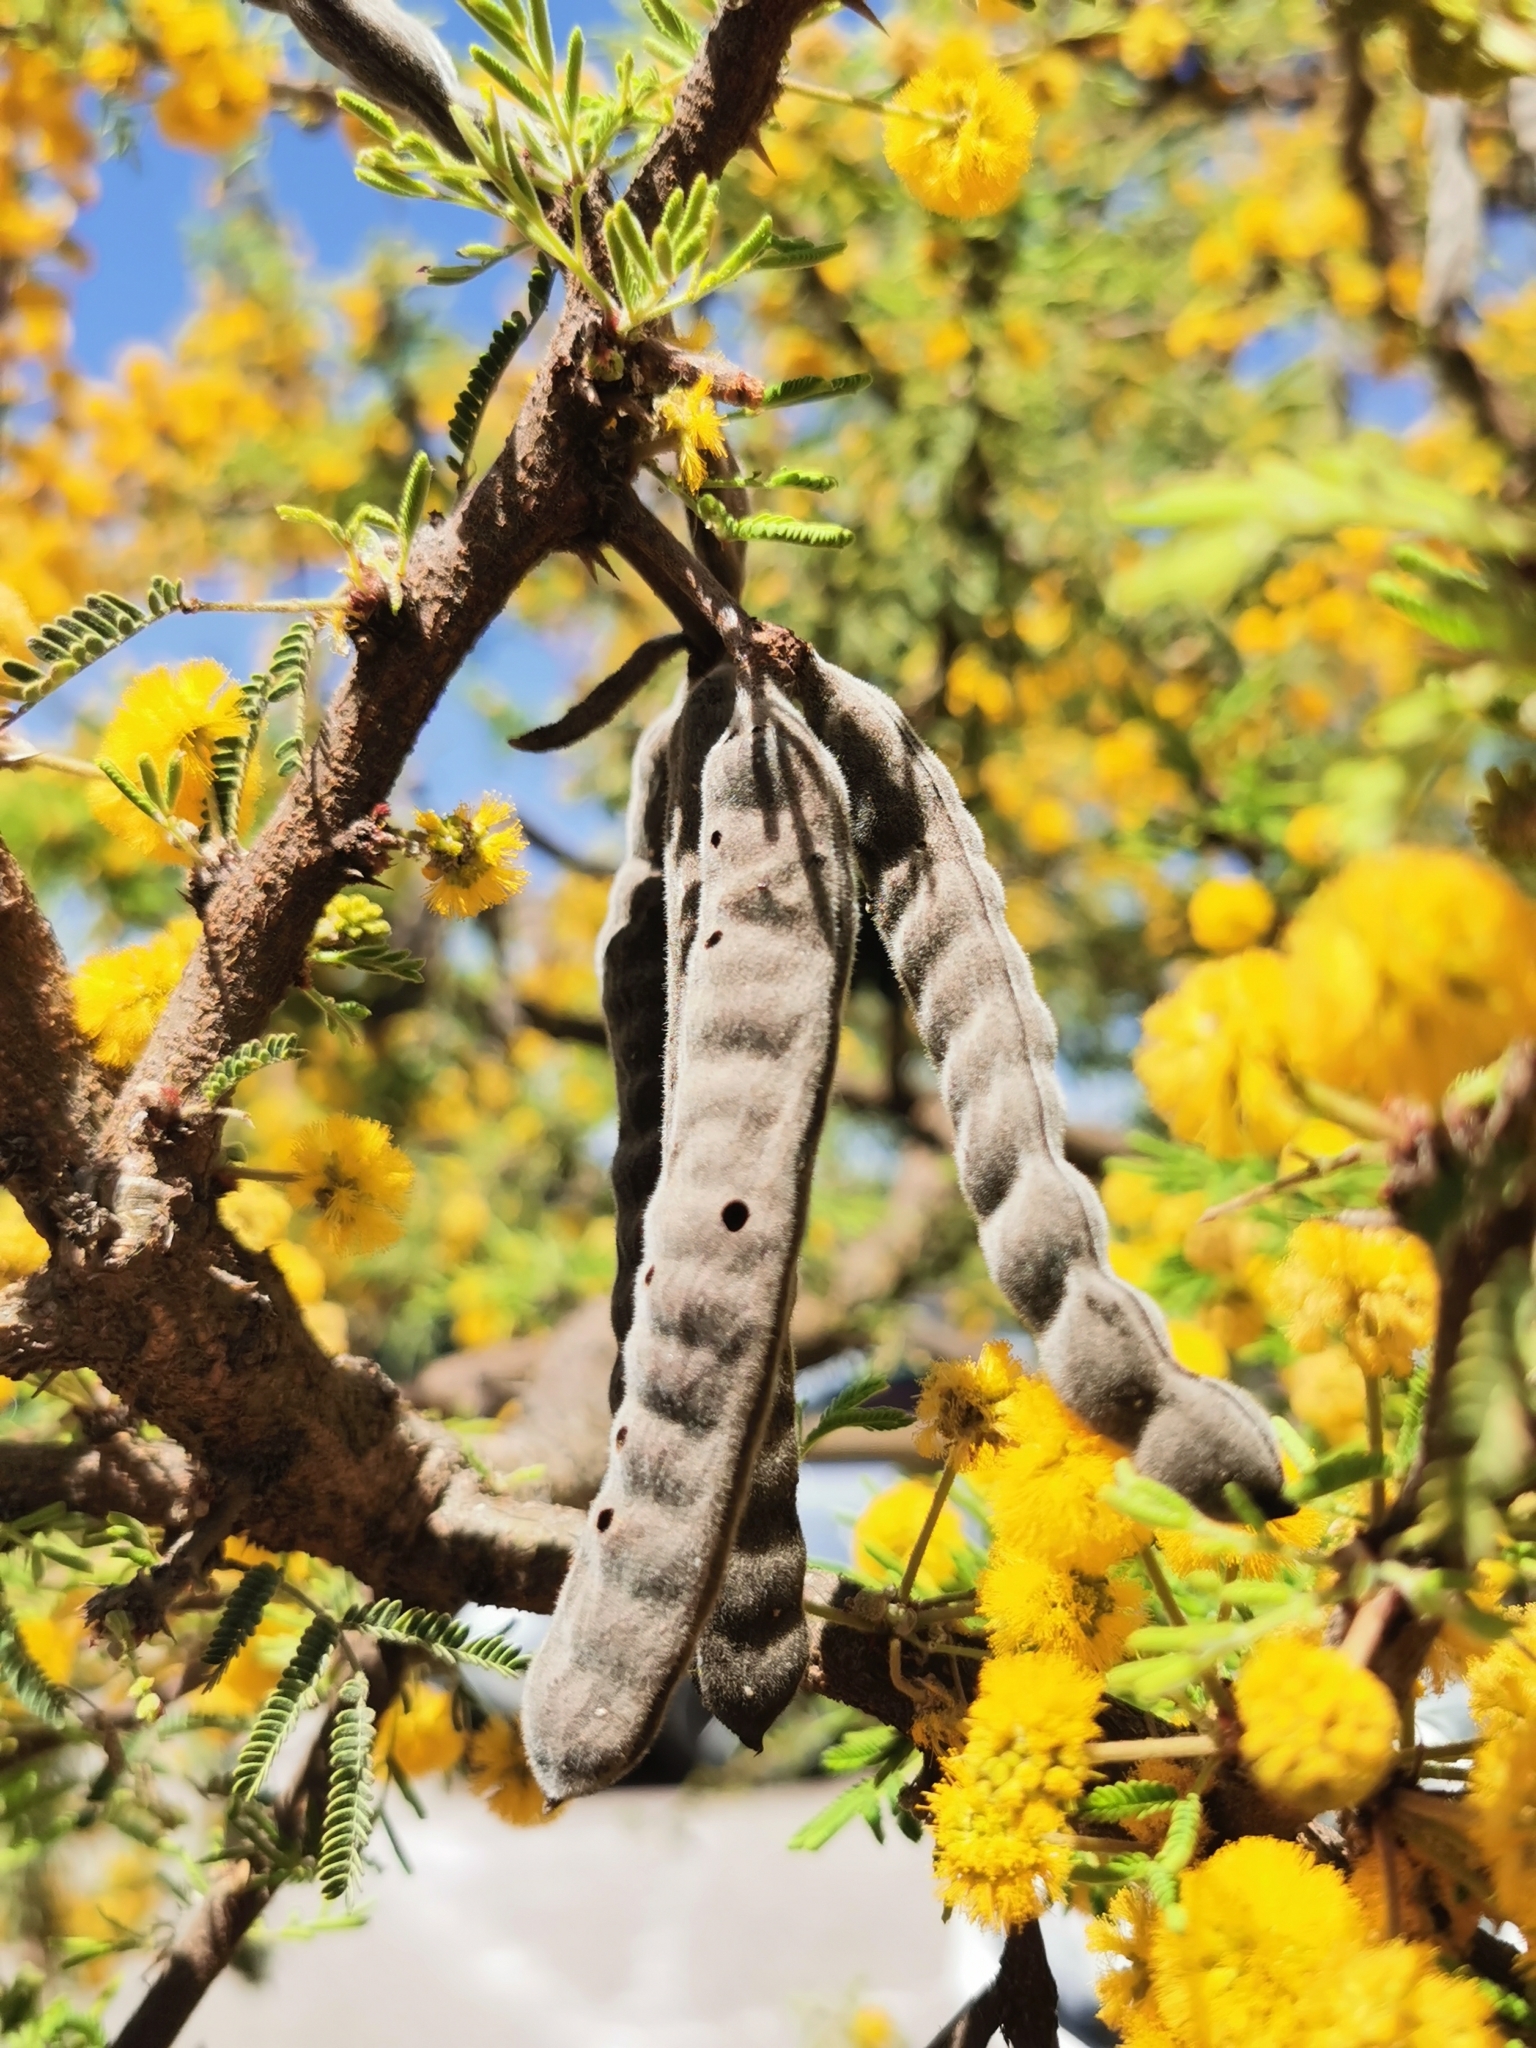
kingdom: Plantae
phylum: Tracheophyta
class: Magnoliopsida
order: Fabales
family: Fabaceae
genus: Vachellia
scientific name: Vachellia schaffneri
